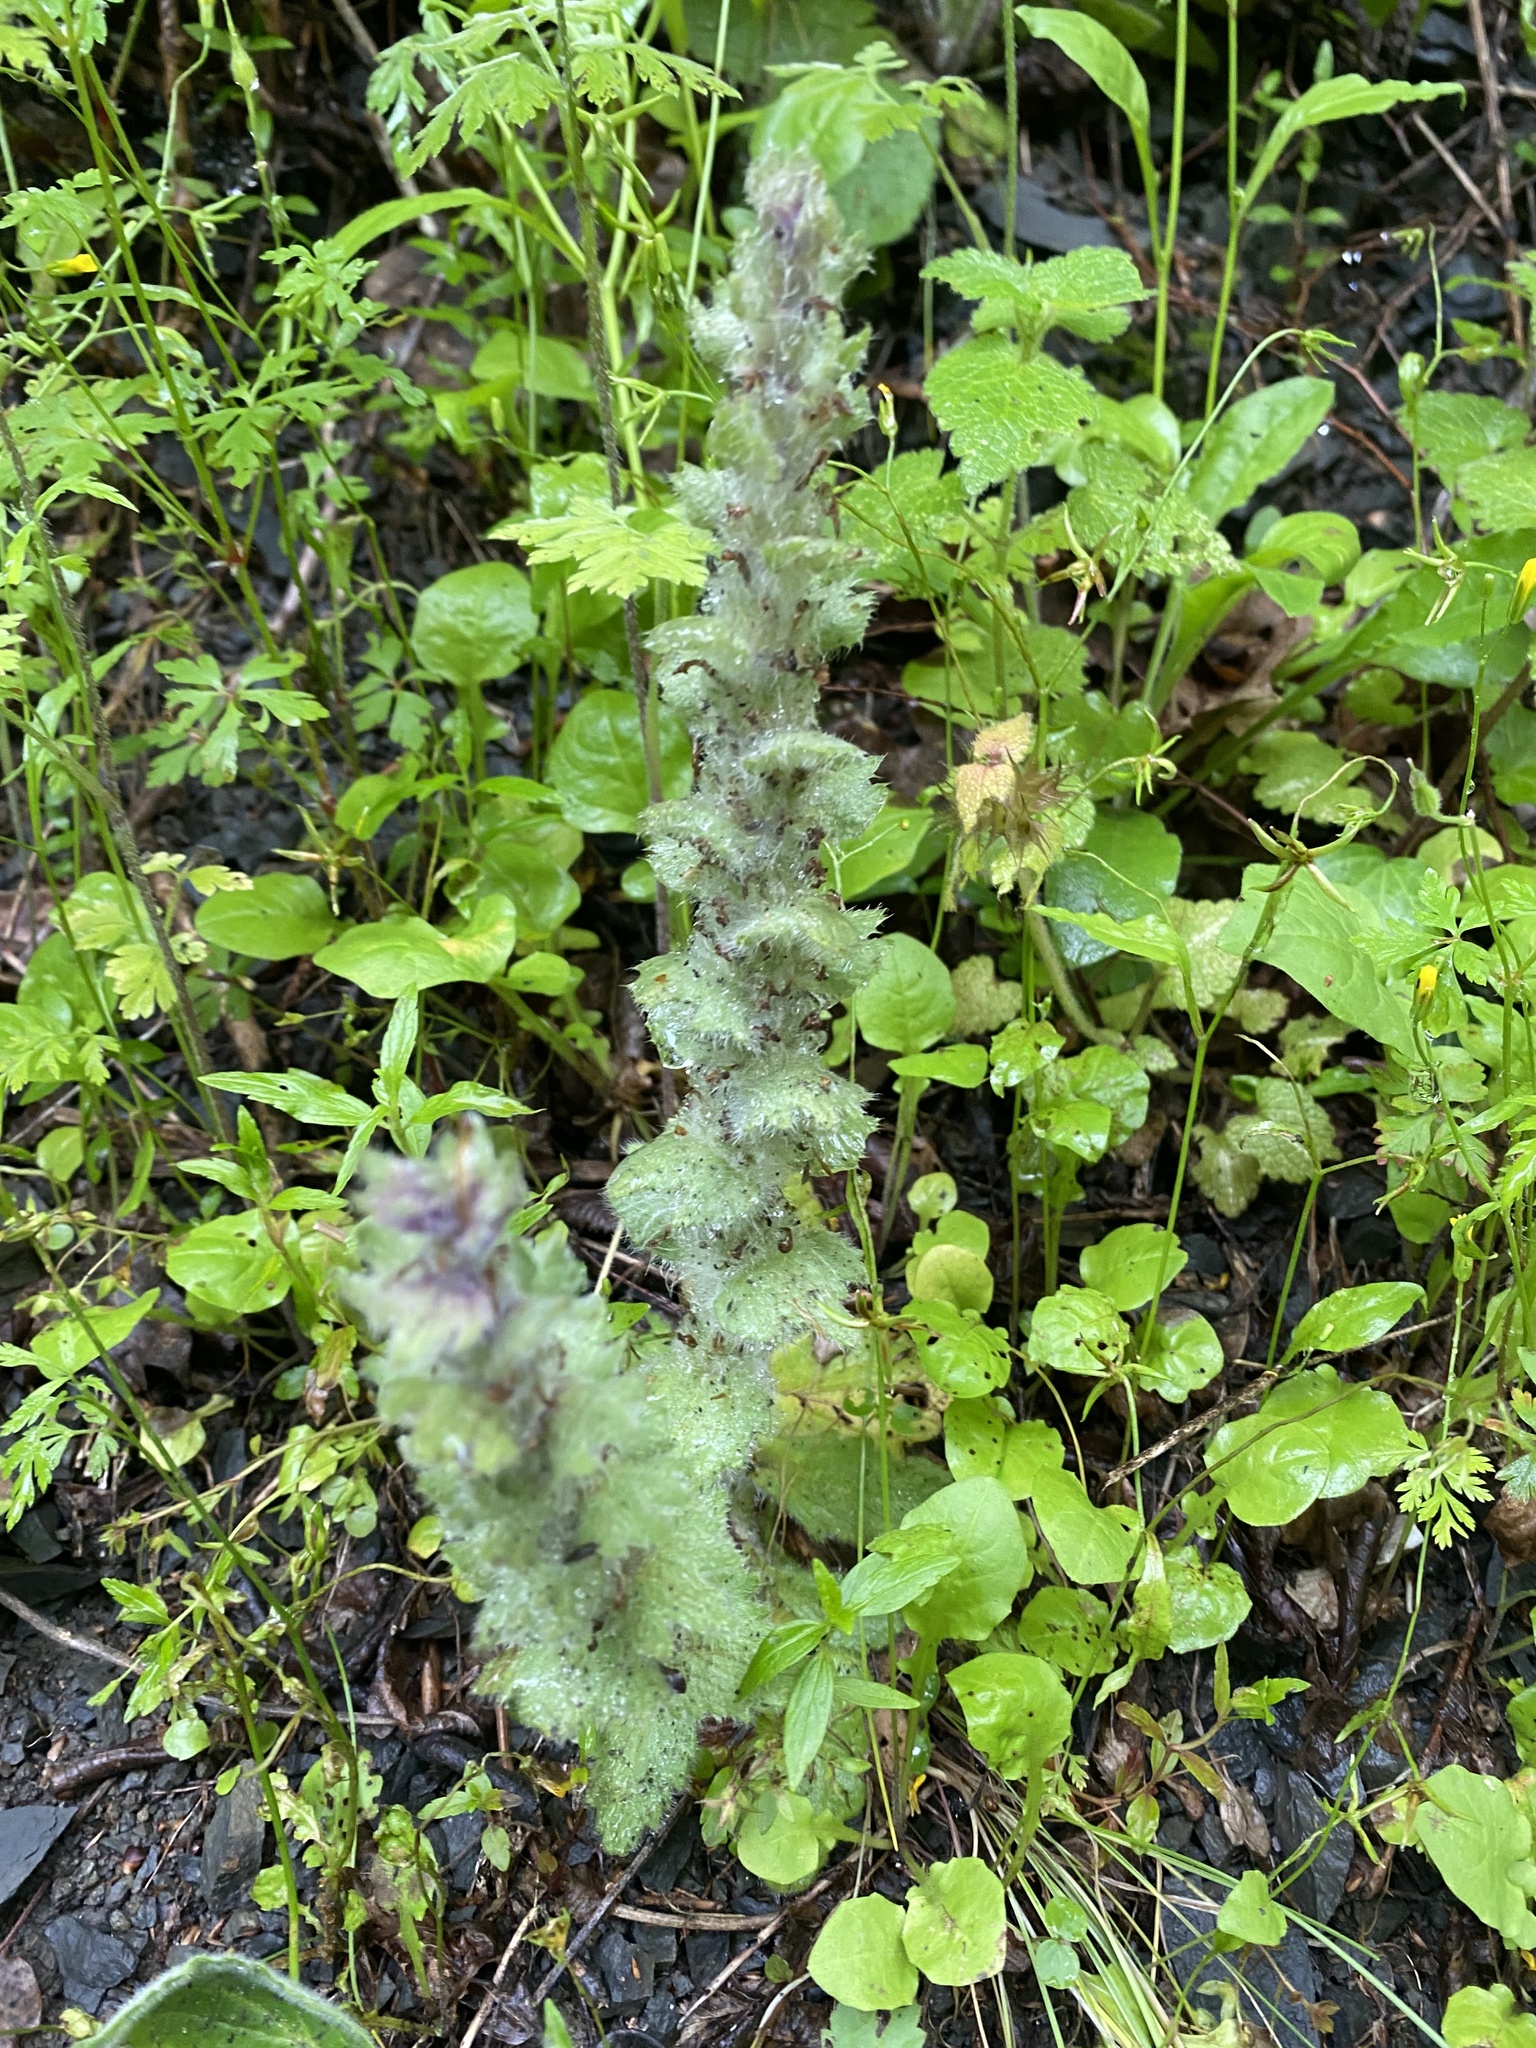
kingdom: Plantae
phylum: Tracheophyta
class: Magnoliopsida
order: Lamiales
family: Lamiaceae
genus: Ajuga
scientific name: Ajuga orientalis
